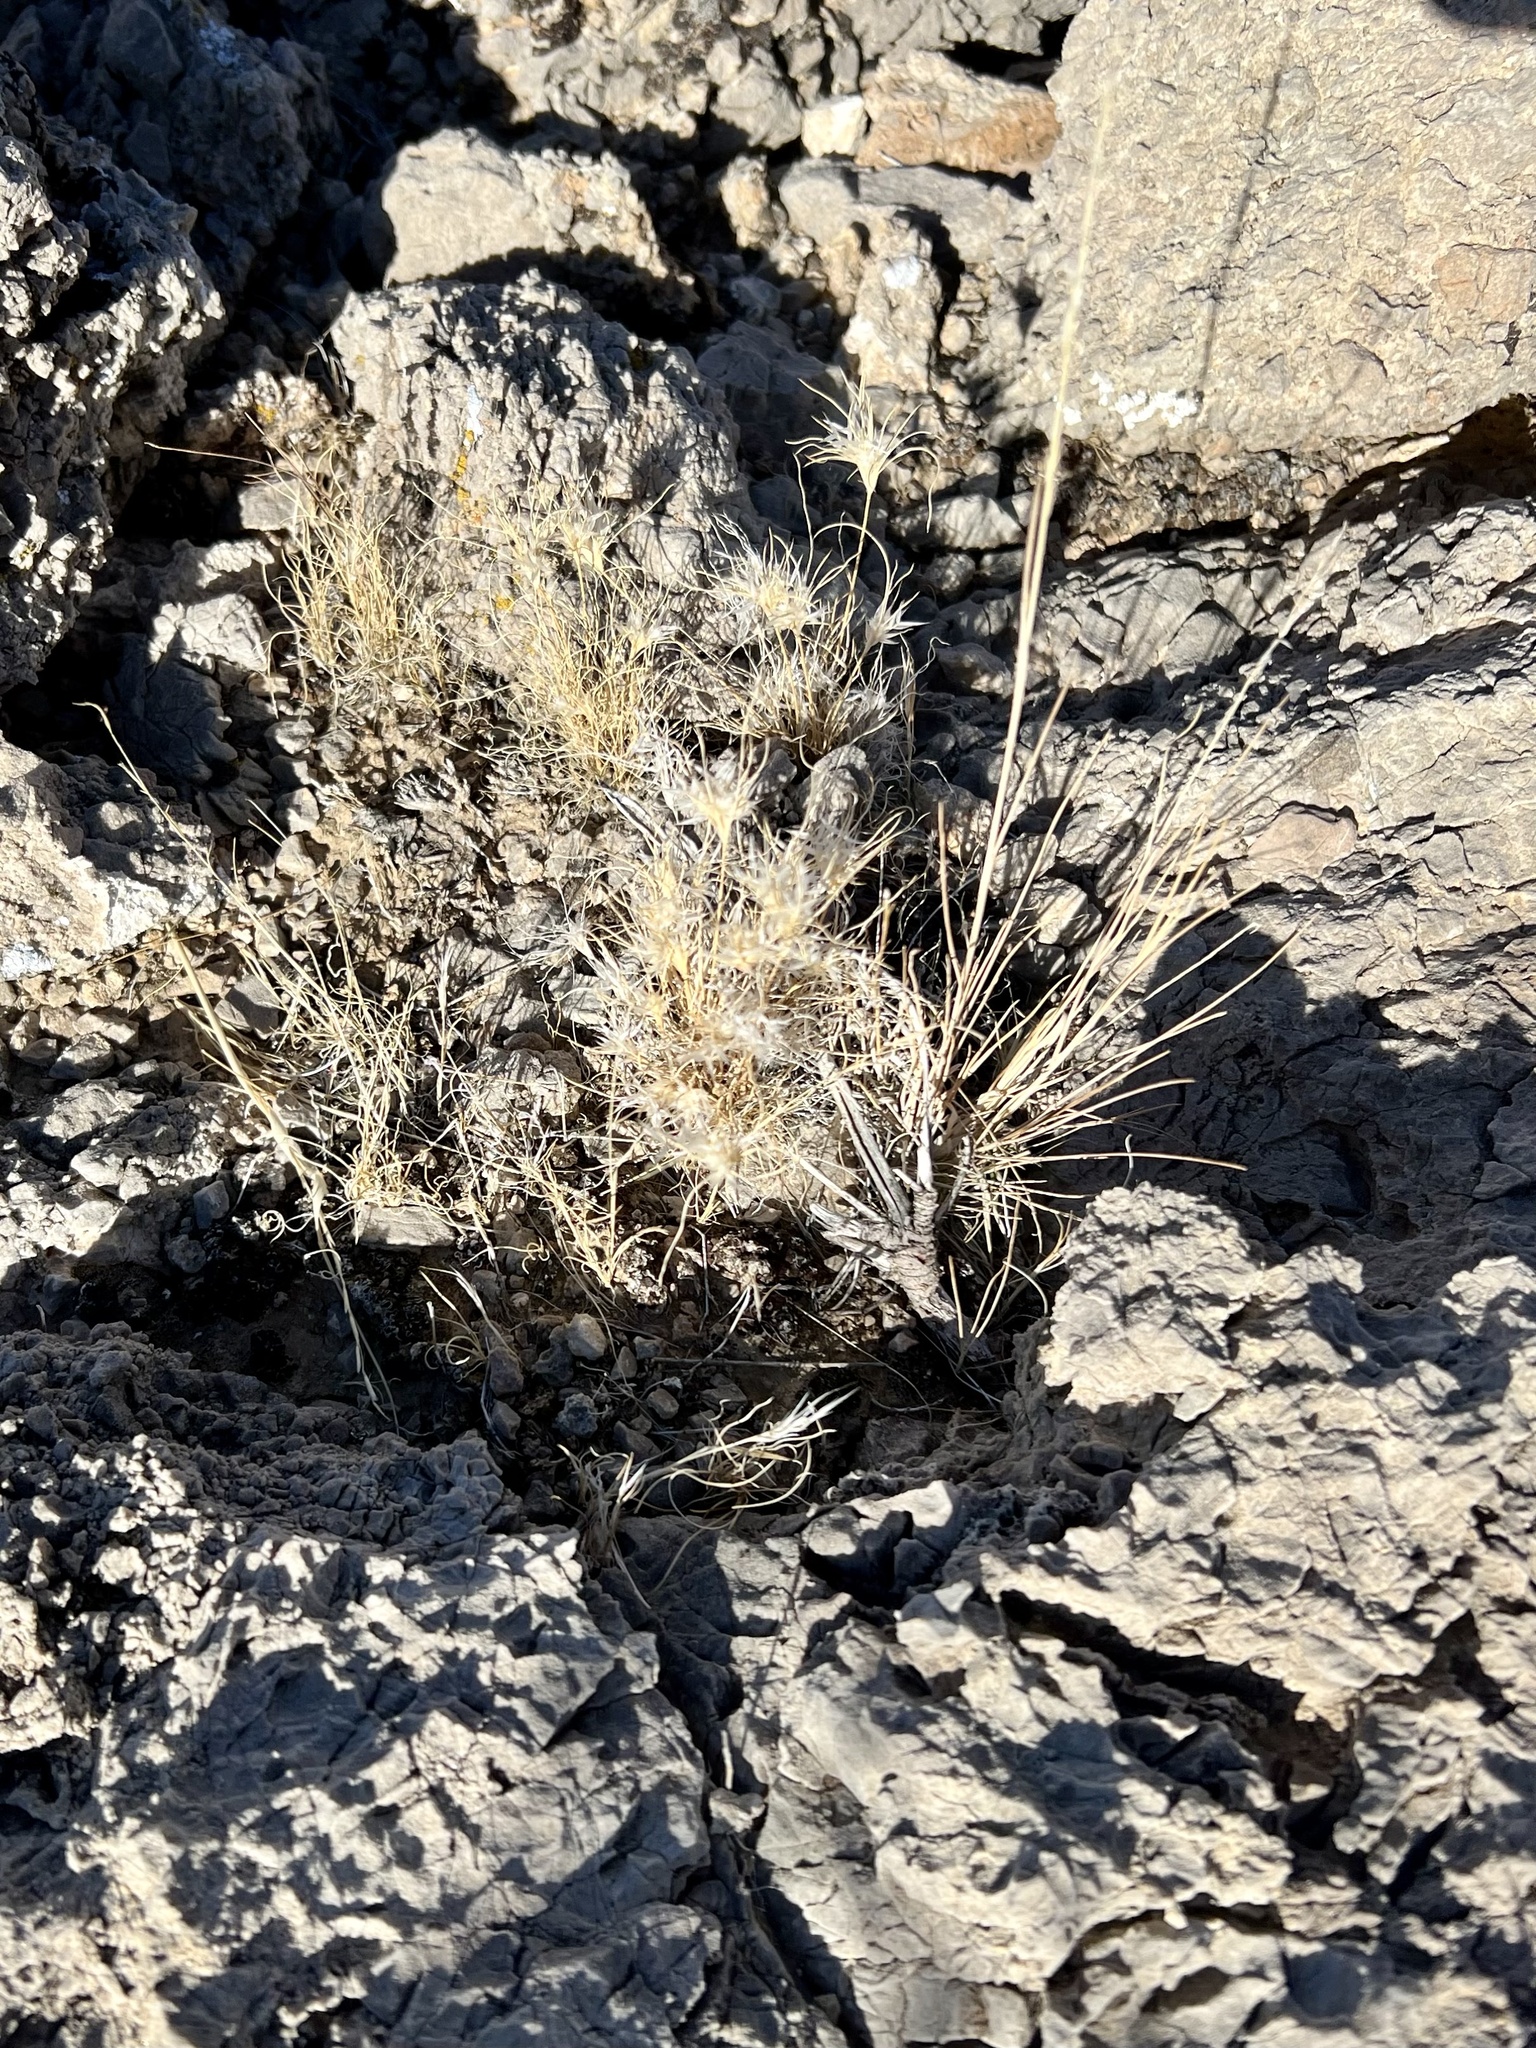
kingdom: Plantae
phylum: Tracheophyta
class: Liliopsida
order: Poales
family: Poaceae
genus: Dasyochloa
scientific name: Dasyochloa pulchella
